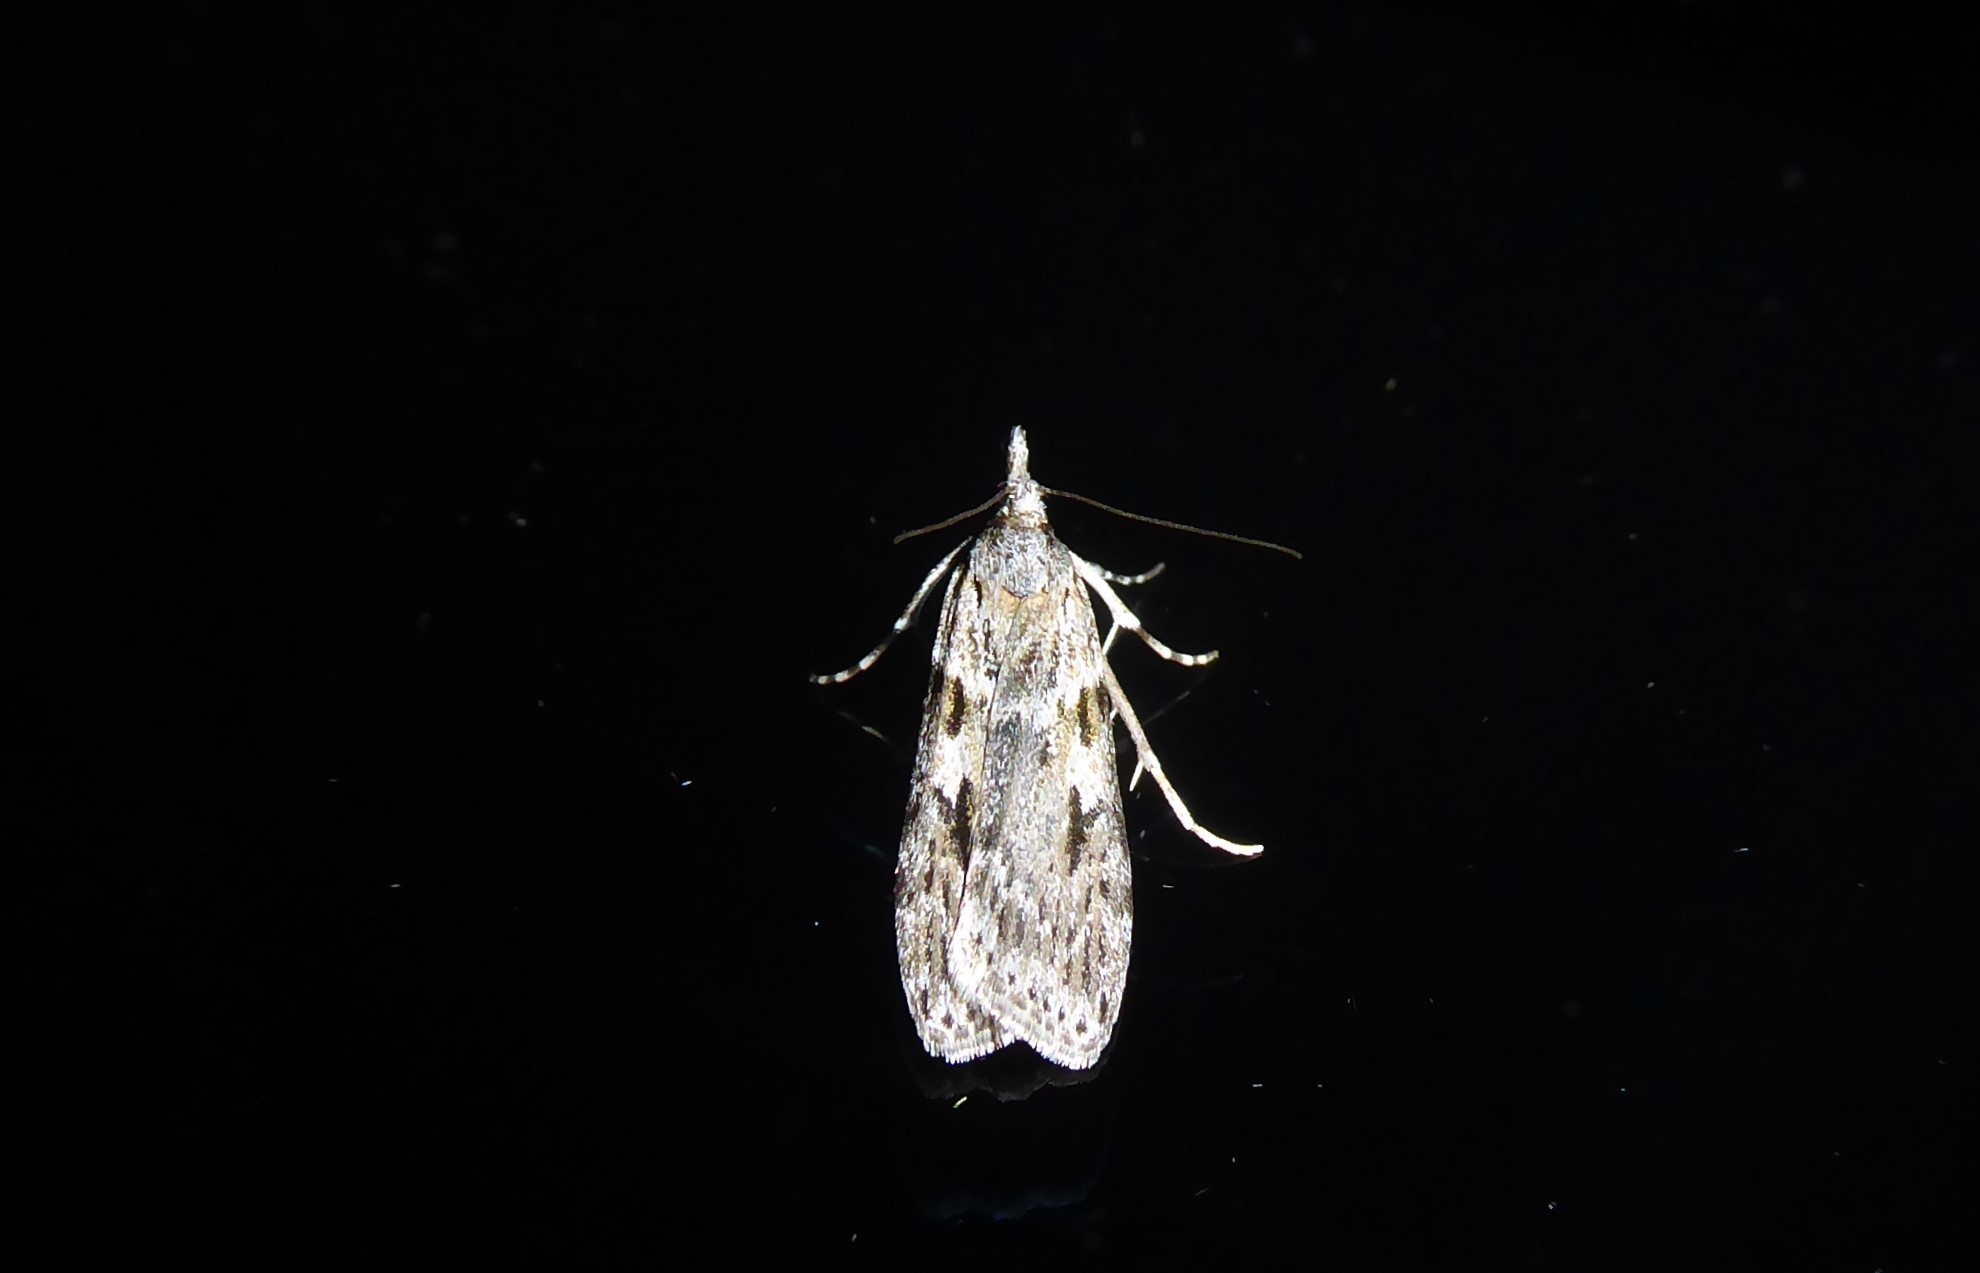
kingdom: Animalia
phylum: Arthropoda
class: Insecta
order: Lepidoptera
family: Crambidae
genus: Scoparia
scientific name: Scoparia halopis
